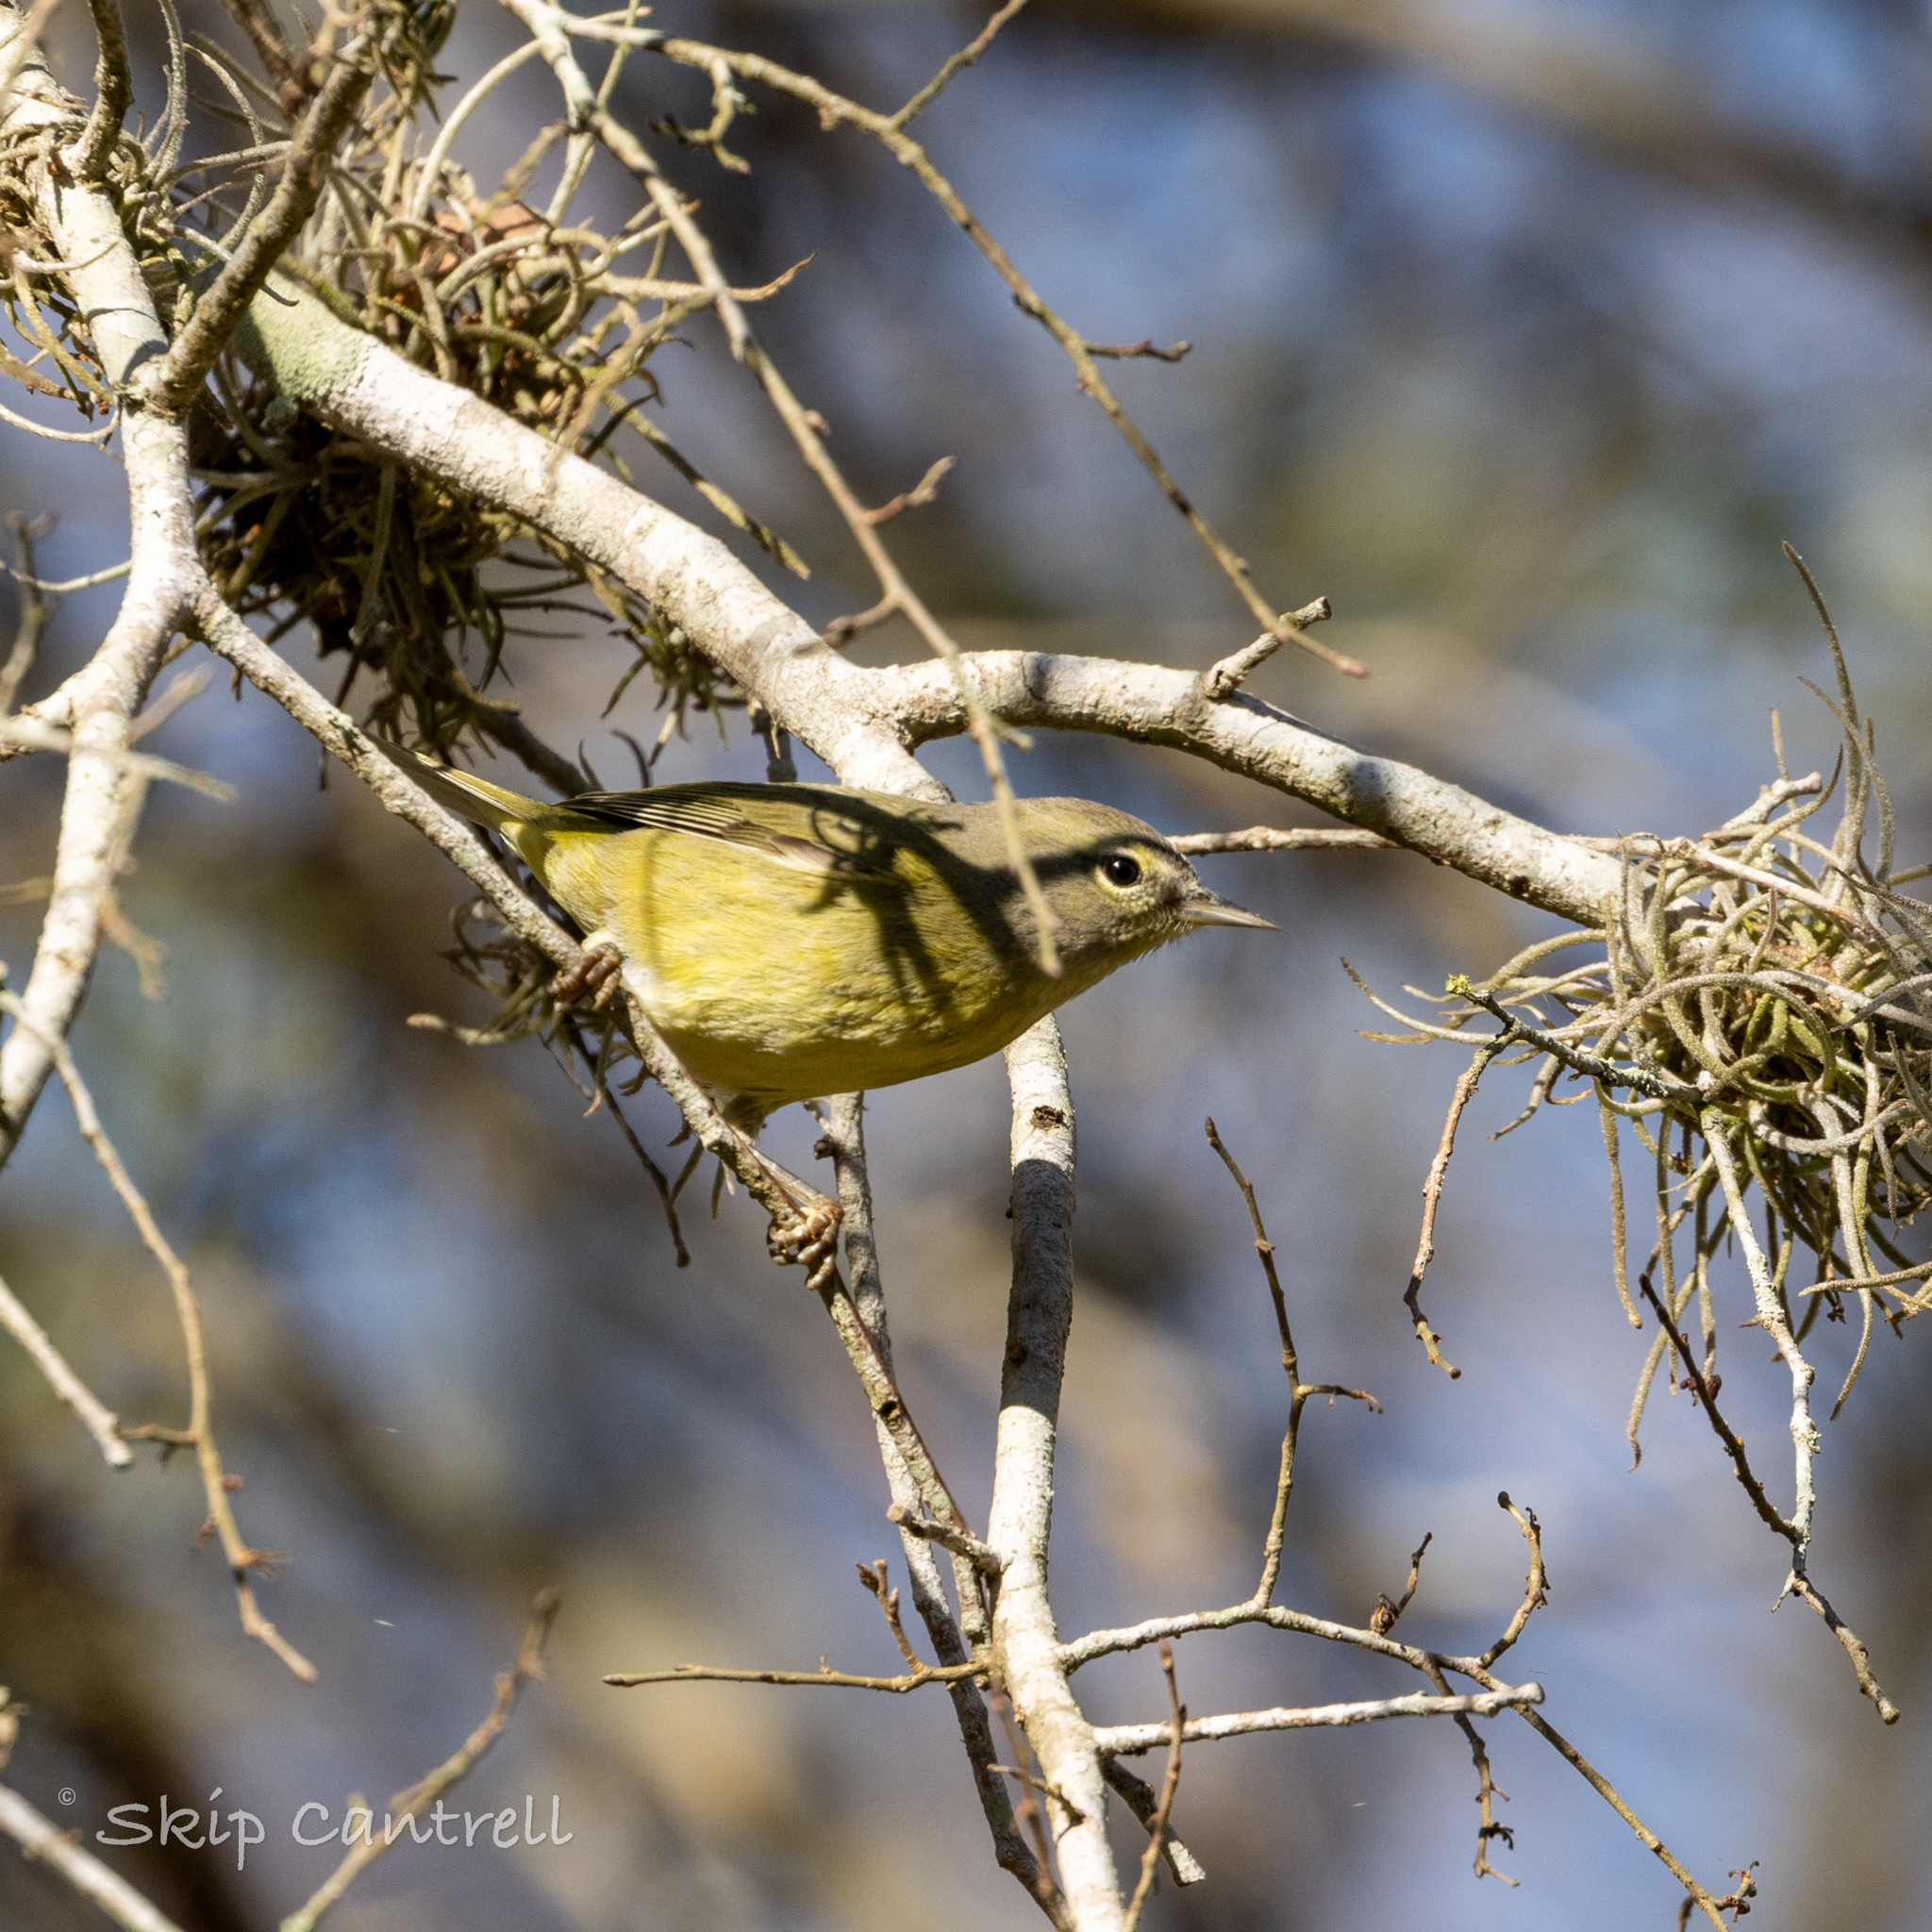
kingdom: Animalia
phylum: Chordata
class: Aves
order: Passeriformes
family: Parulidae
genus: Leiothlypis
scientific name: Leiothlypis celata
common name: Orange-crowned warbler
